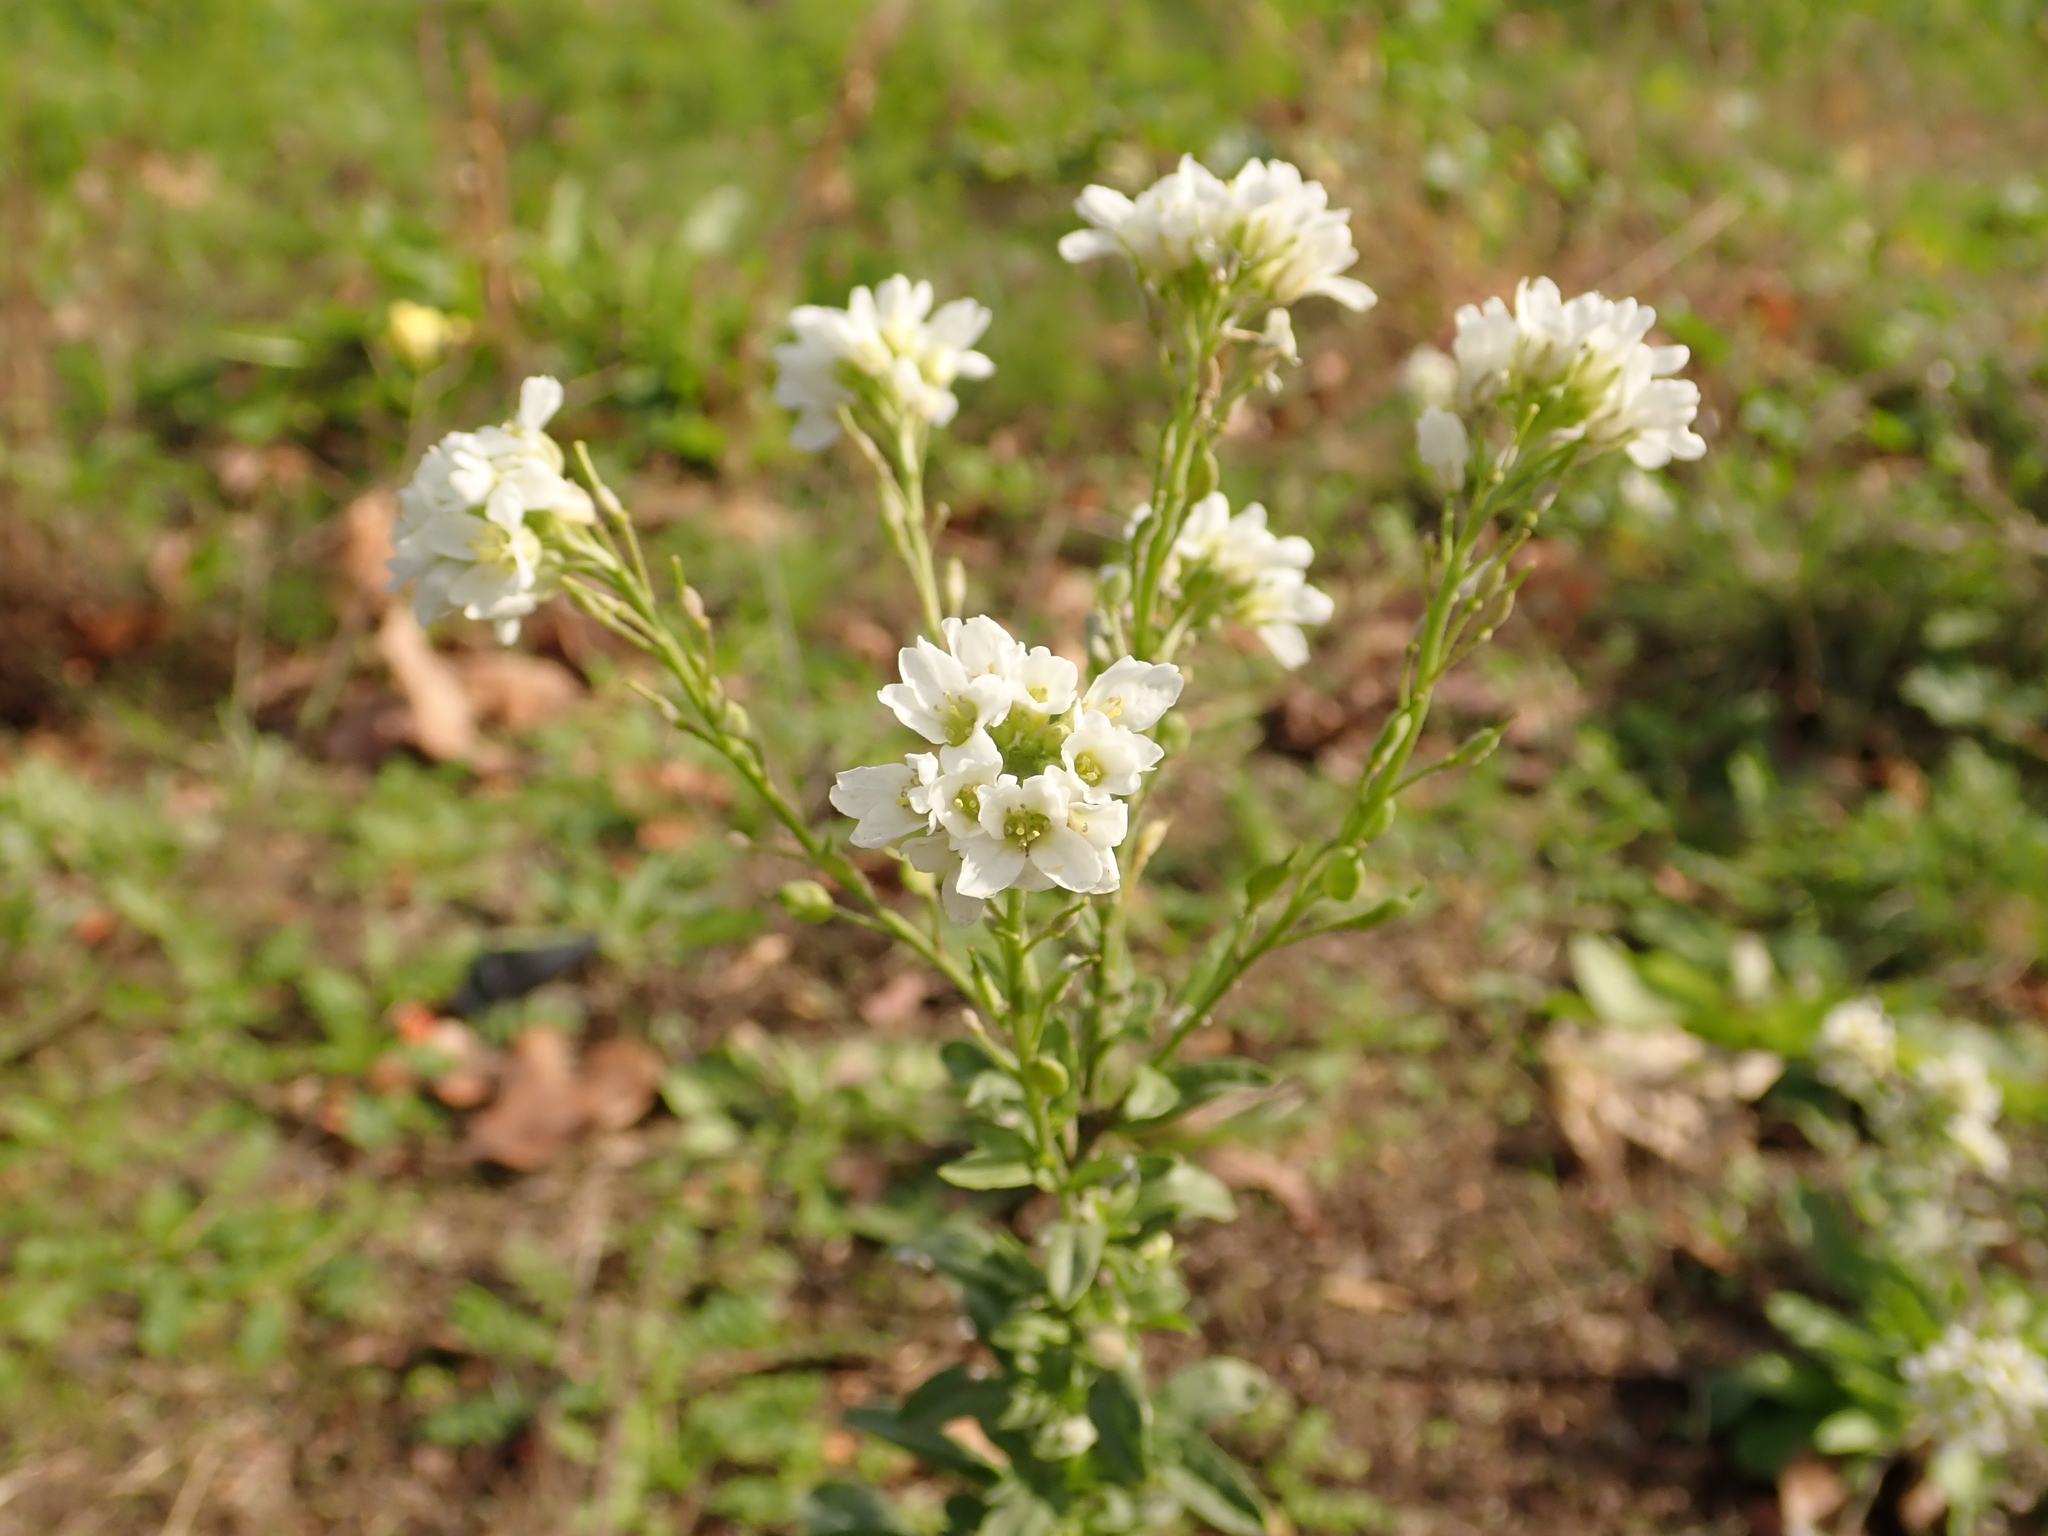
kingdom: Plantae
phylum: Tracheophyta
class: Magnoliopsida
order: Brassicales
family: Brassicaceae
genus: Berteroa
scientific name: Berteroa incana
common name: Hoary alison
